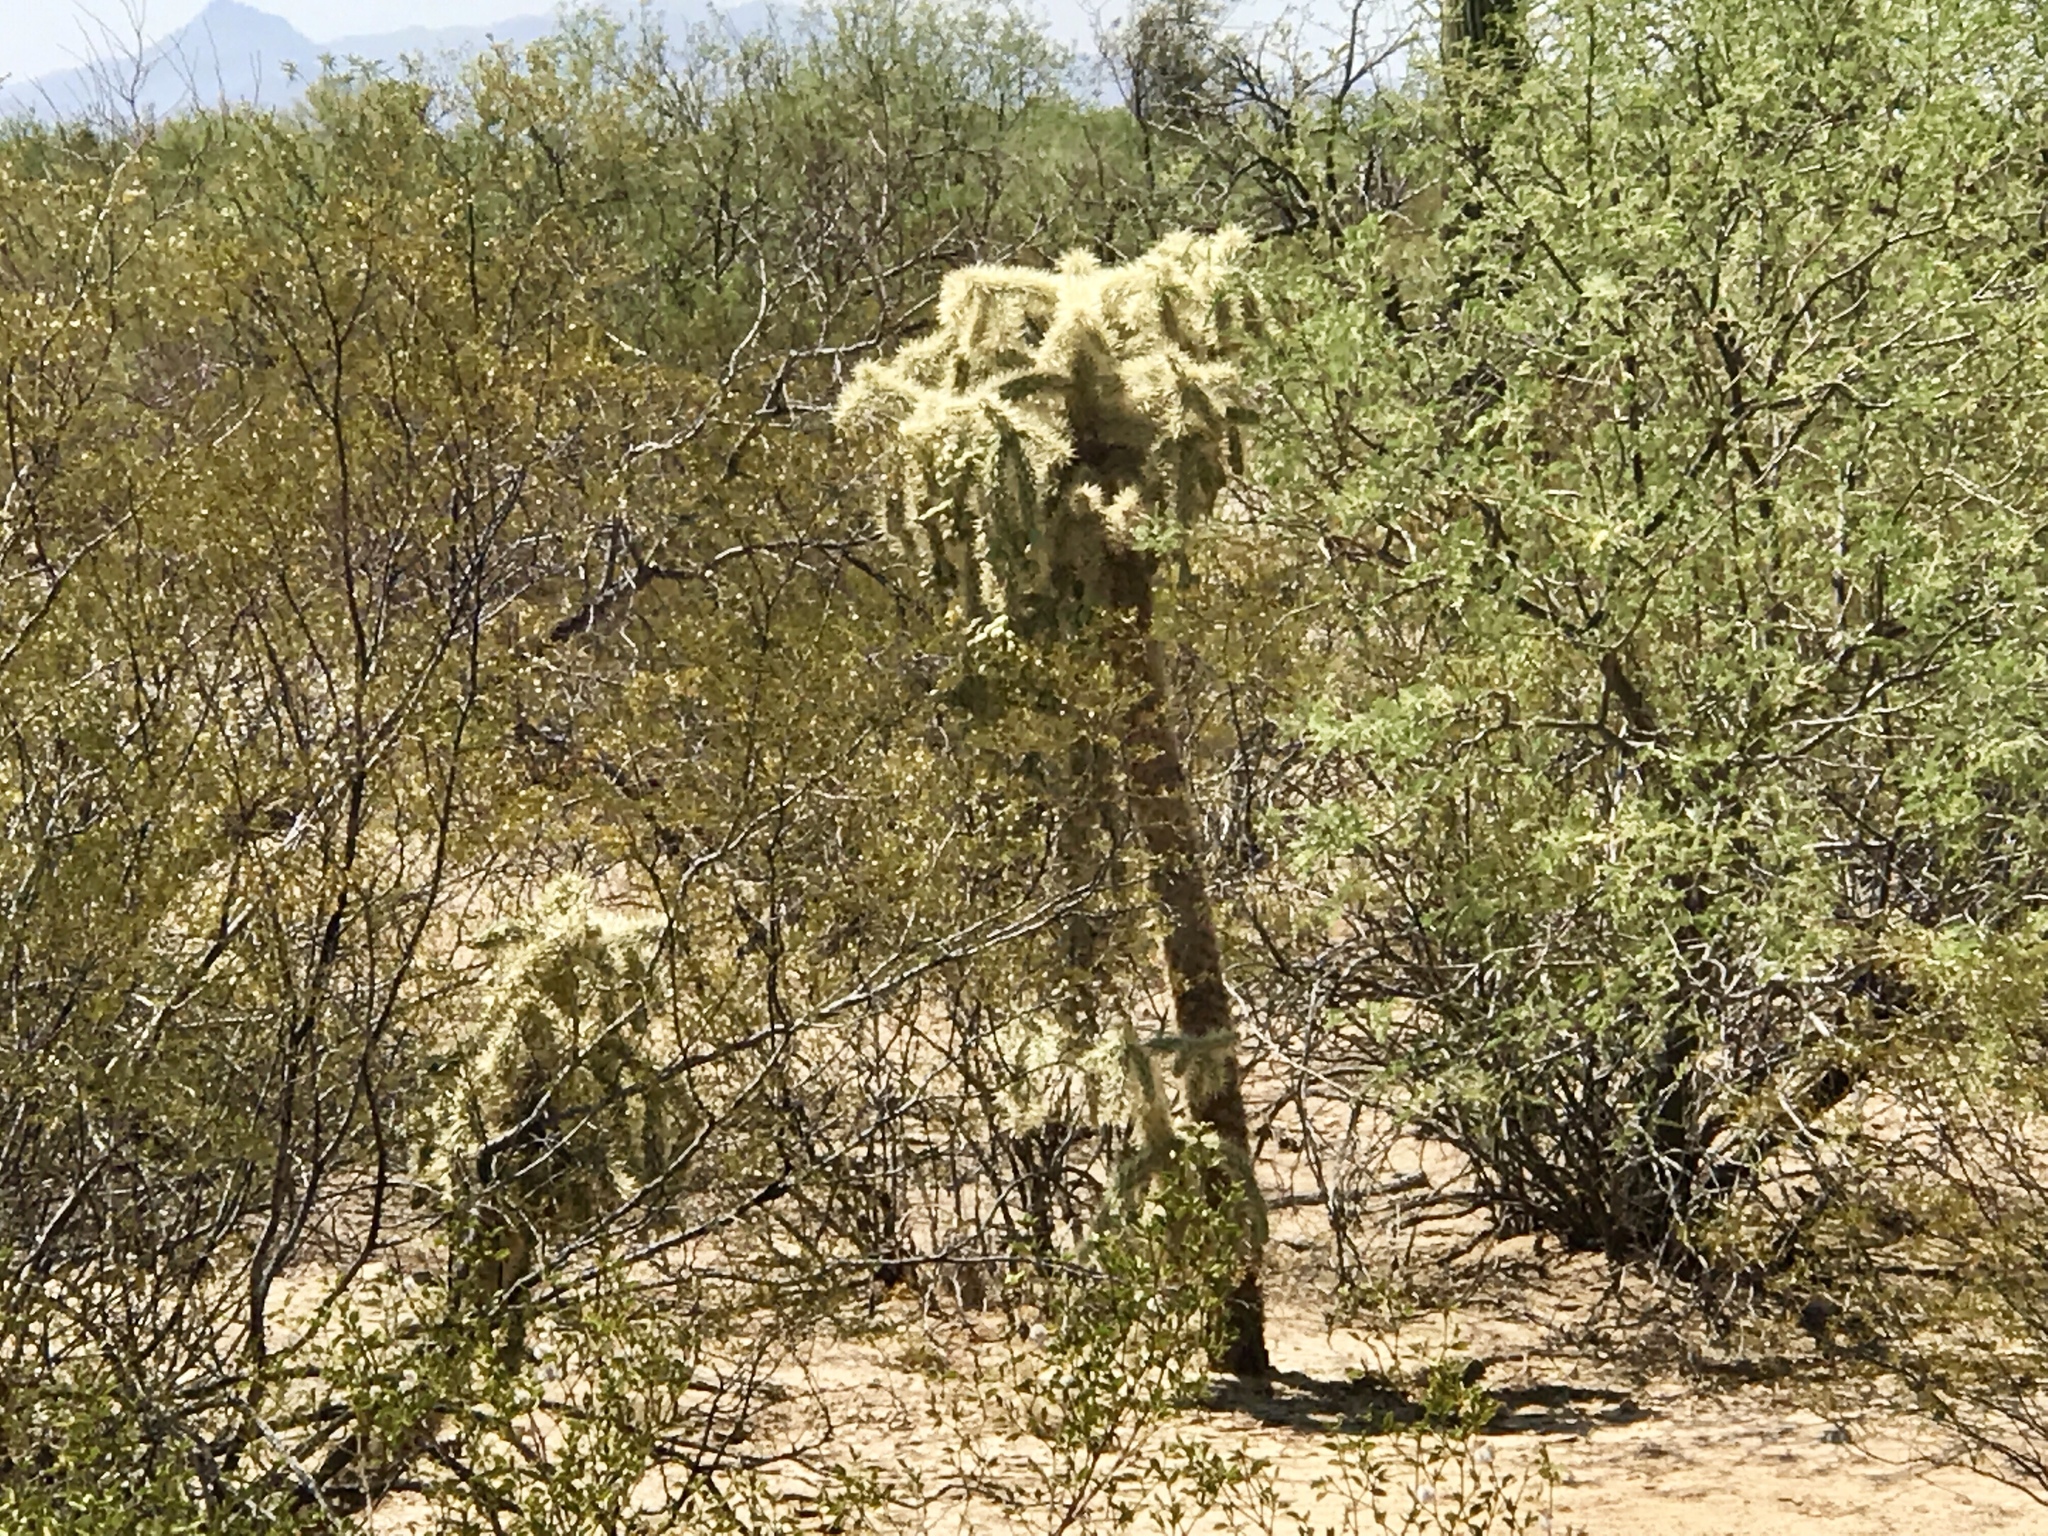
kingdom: Plantae
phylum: Tracheophyta
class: Magnoliopsida
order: Caryophyllales
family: Cactaceae
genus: Cylindropuntia
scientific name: Cylindropuntia fulgida
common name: Jumping cholla
